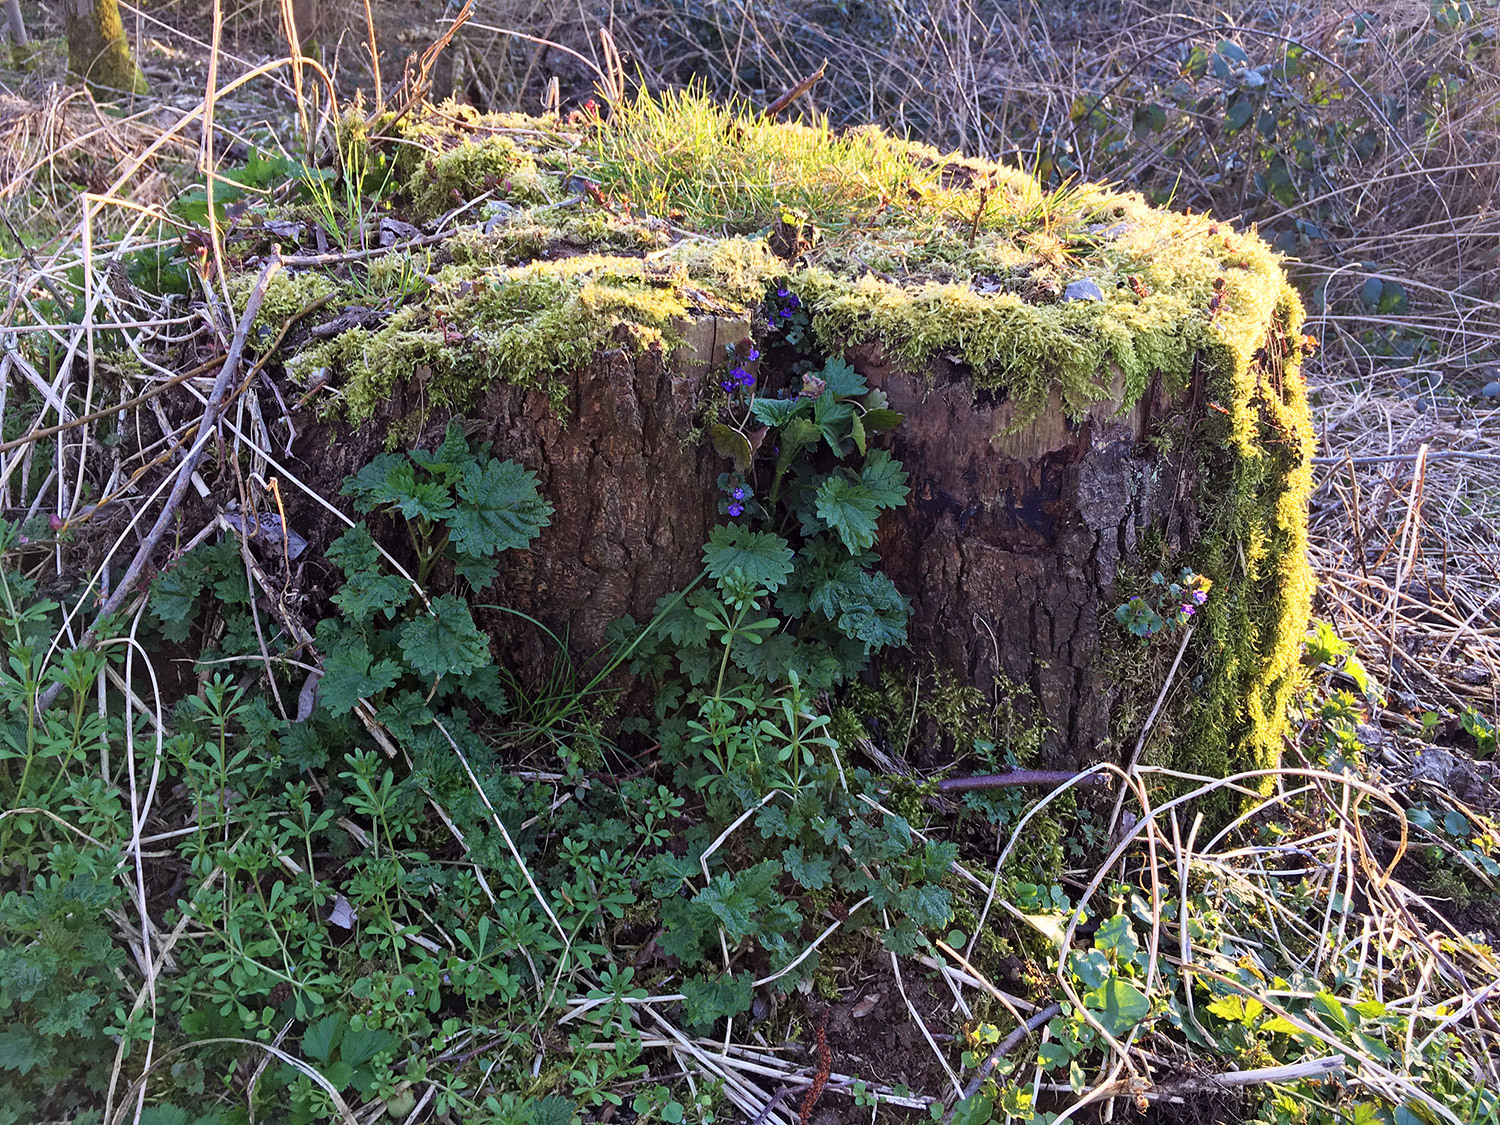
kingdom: Plantae
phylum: Tracheophyta
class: Magnoliopsida
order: Lamiales
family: Lamiaceae
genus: Glechoma
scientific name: Glechoma hederacea
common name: Ground ivy
